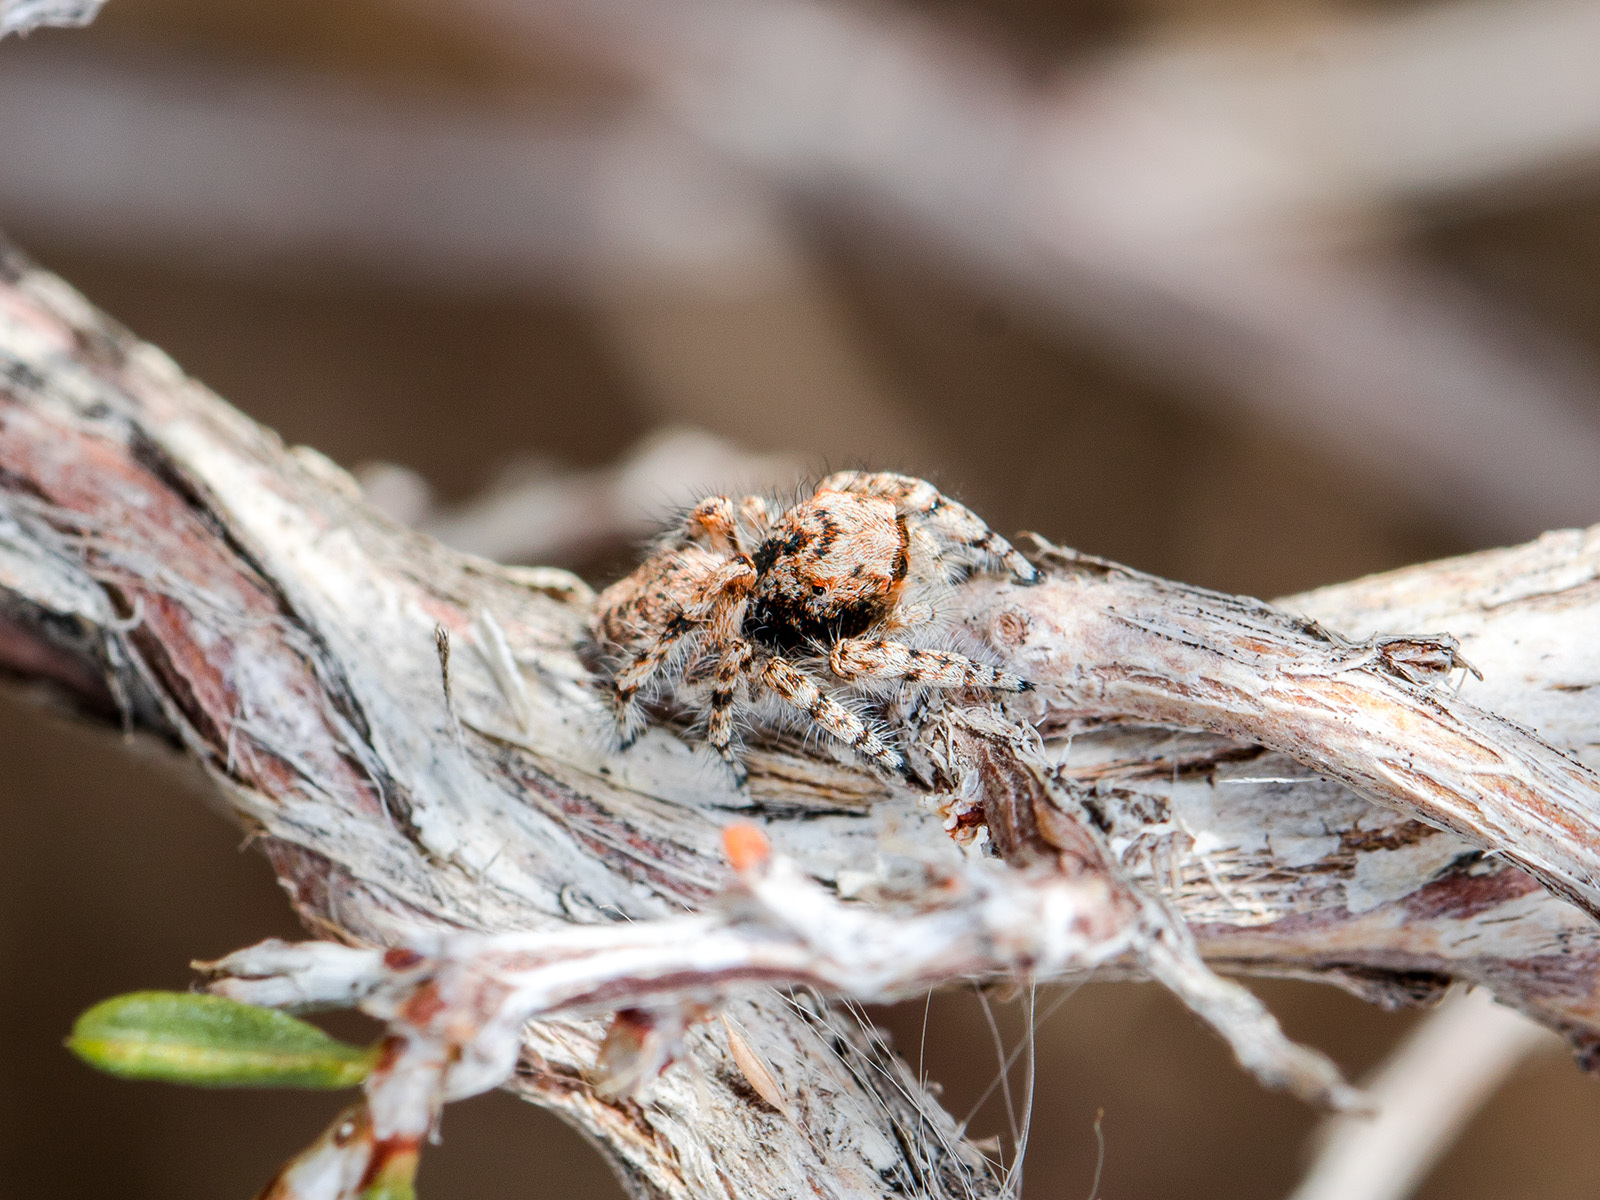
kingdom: Animalia
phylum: Arthropoda
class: Arachnida
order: Araneae
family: Salticidae
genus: Yllenus
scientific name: Yllenus uiguricus
